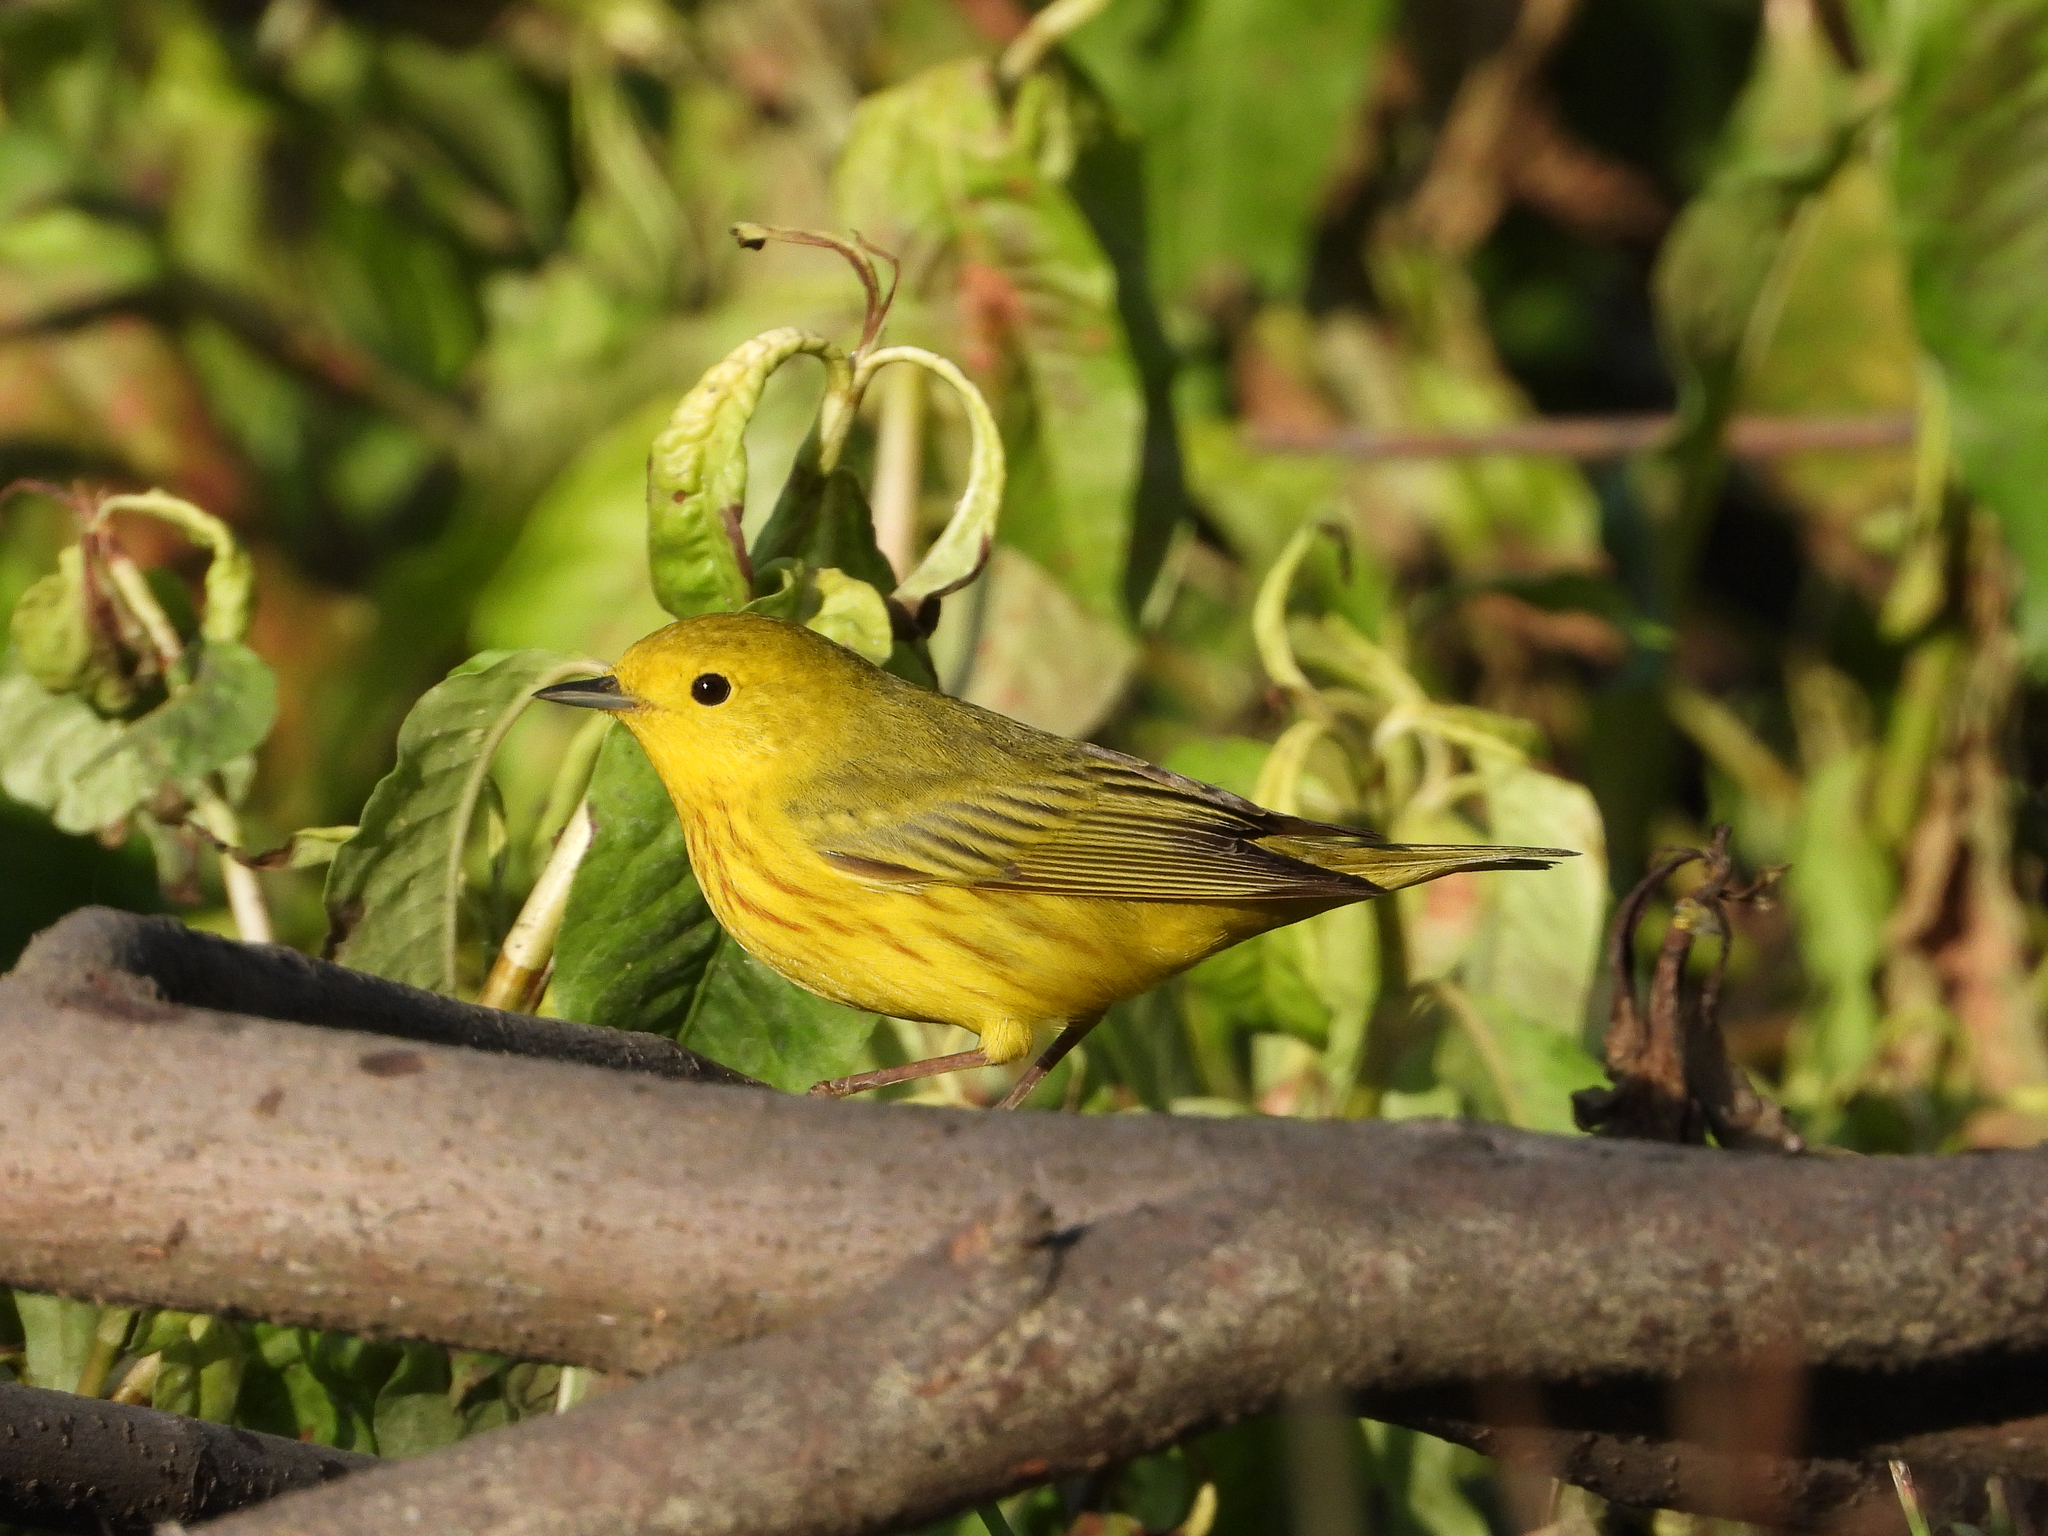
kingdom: Animalia
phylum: Chordata
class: Aves
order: Passeriformes
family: Parulidae
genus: Setophaga
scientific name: Setophaga petechia
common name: Yellow warbler
